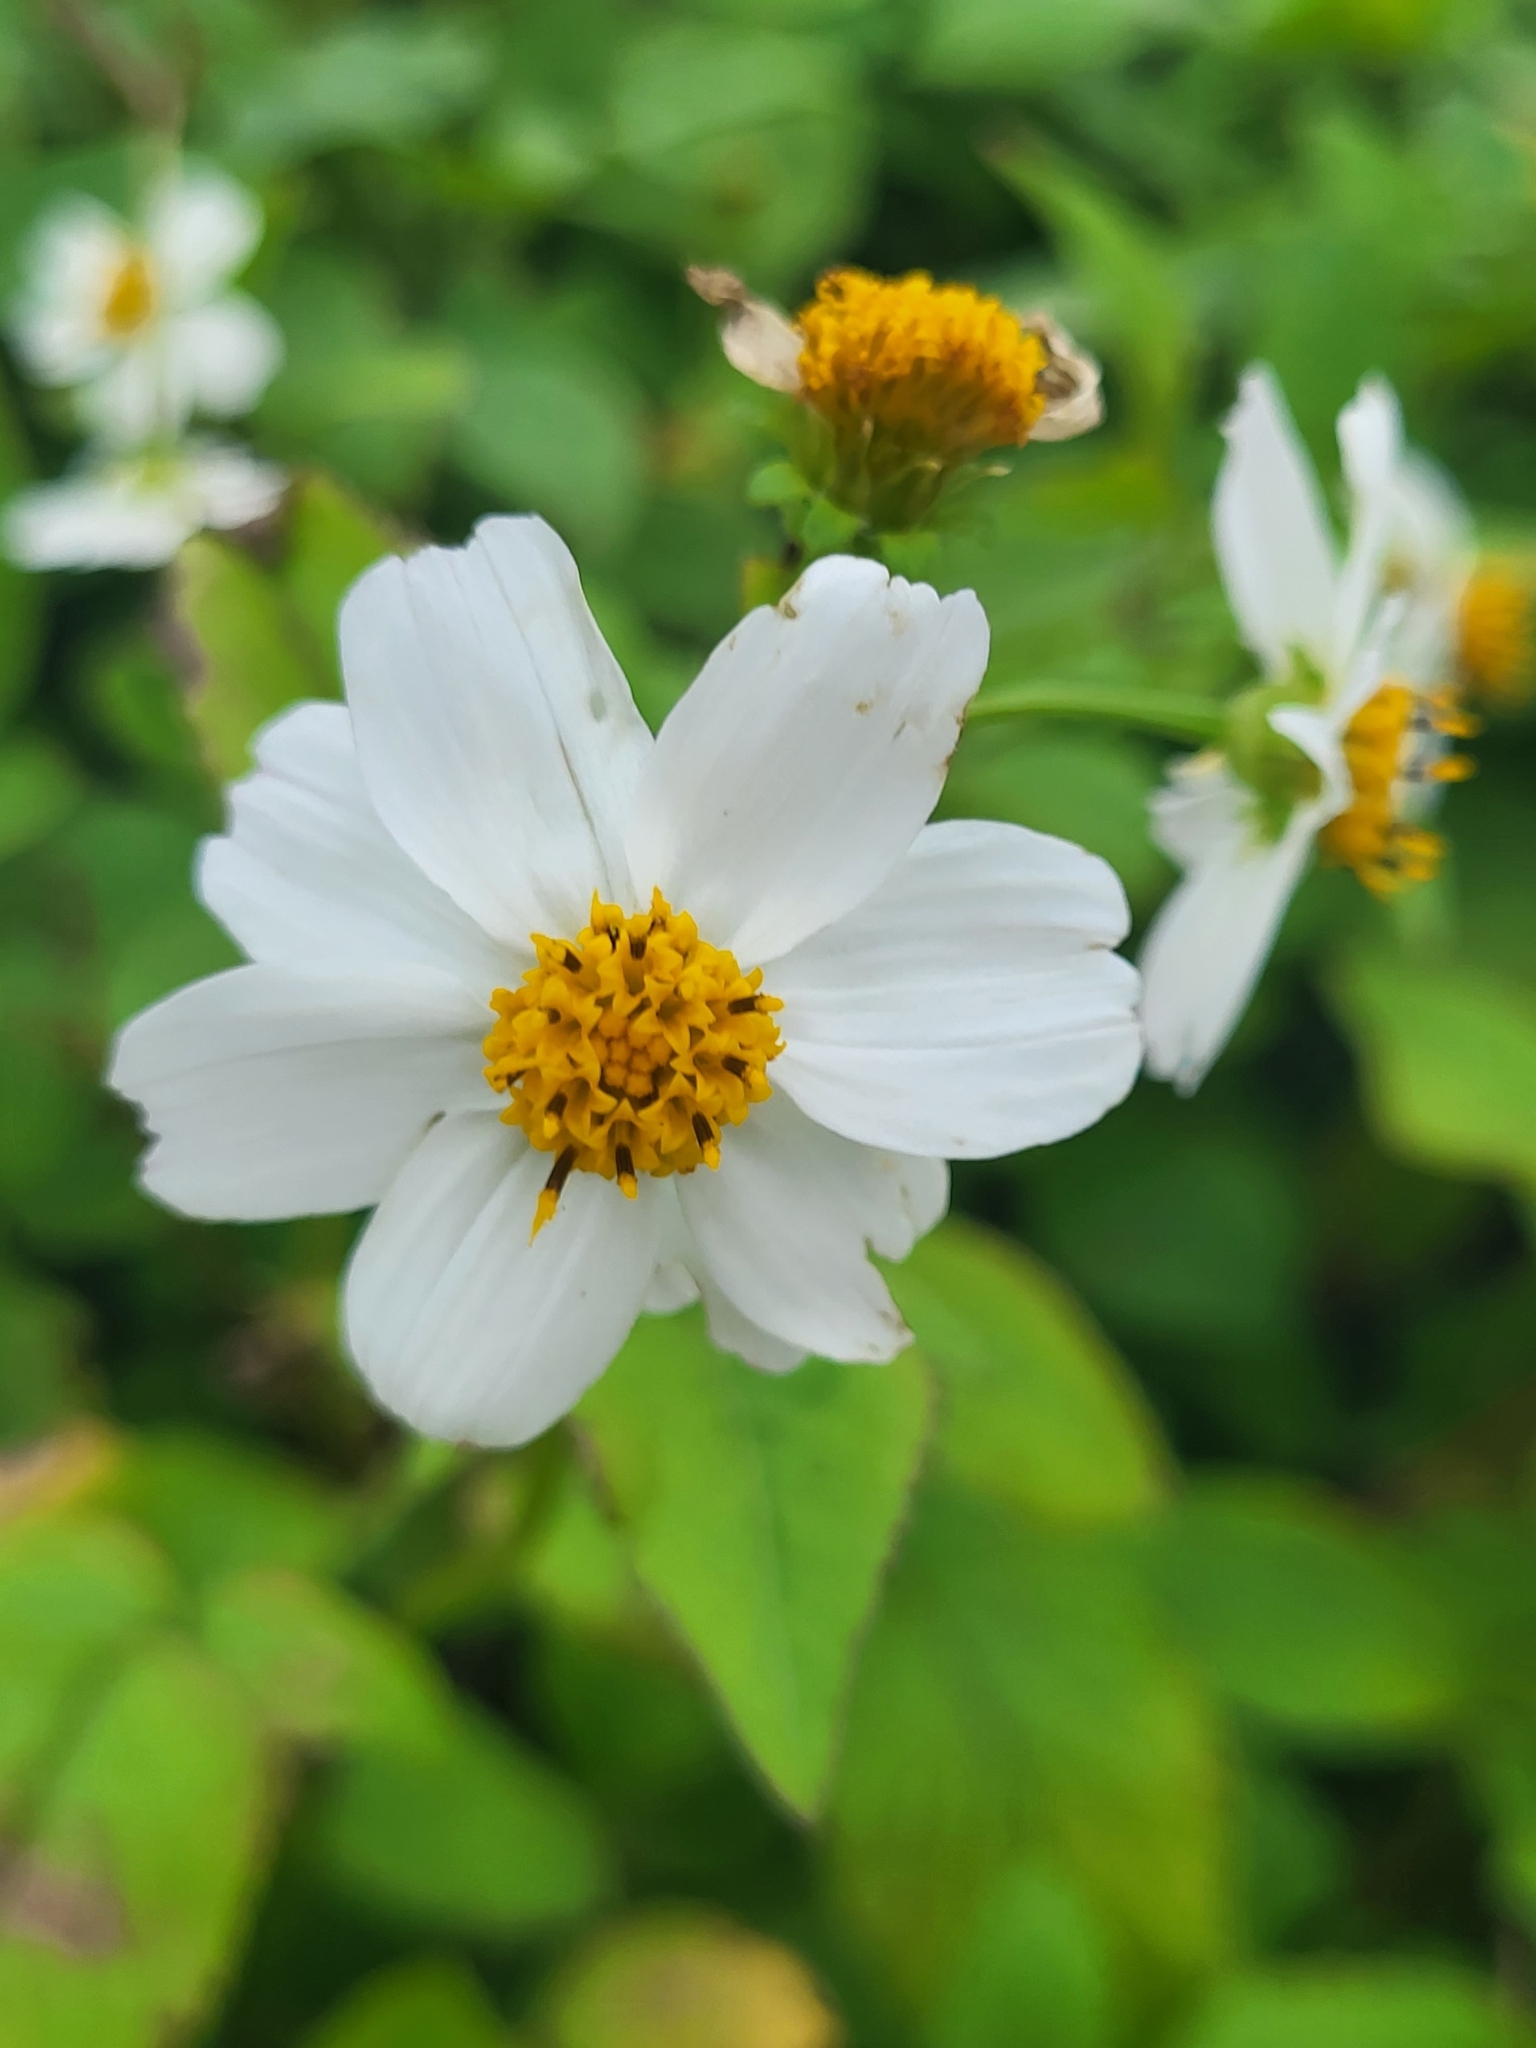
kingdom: Plantae
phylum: Tracheophyta
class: Magnoliopsida
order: Asterales
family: Asteraceae
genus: Bidens
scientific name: Bidens alba
